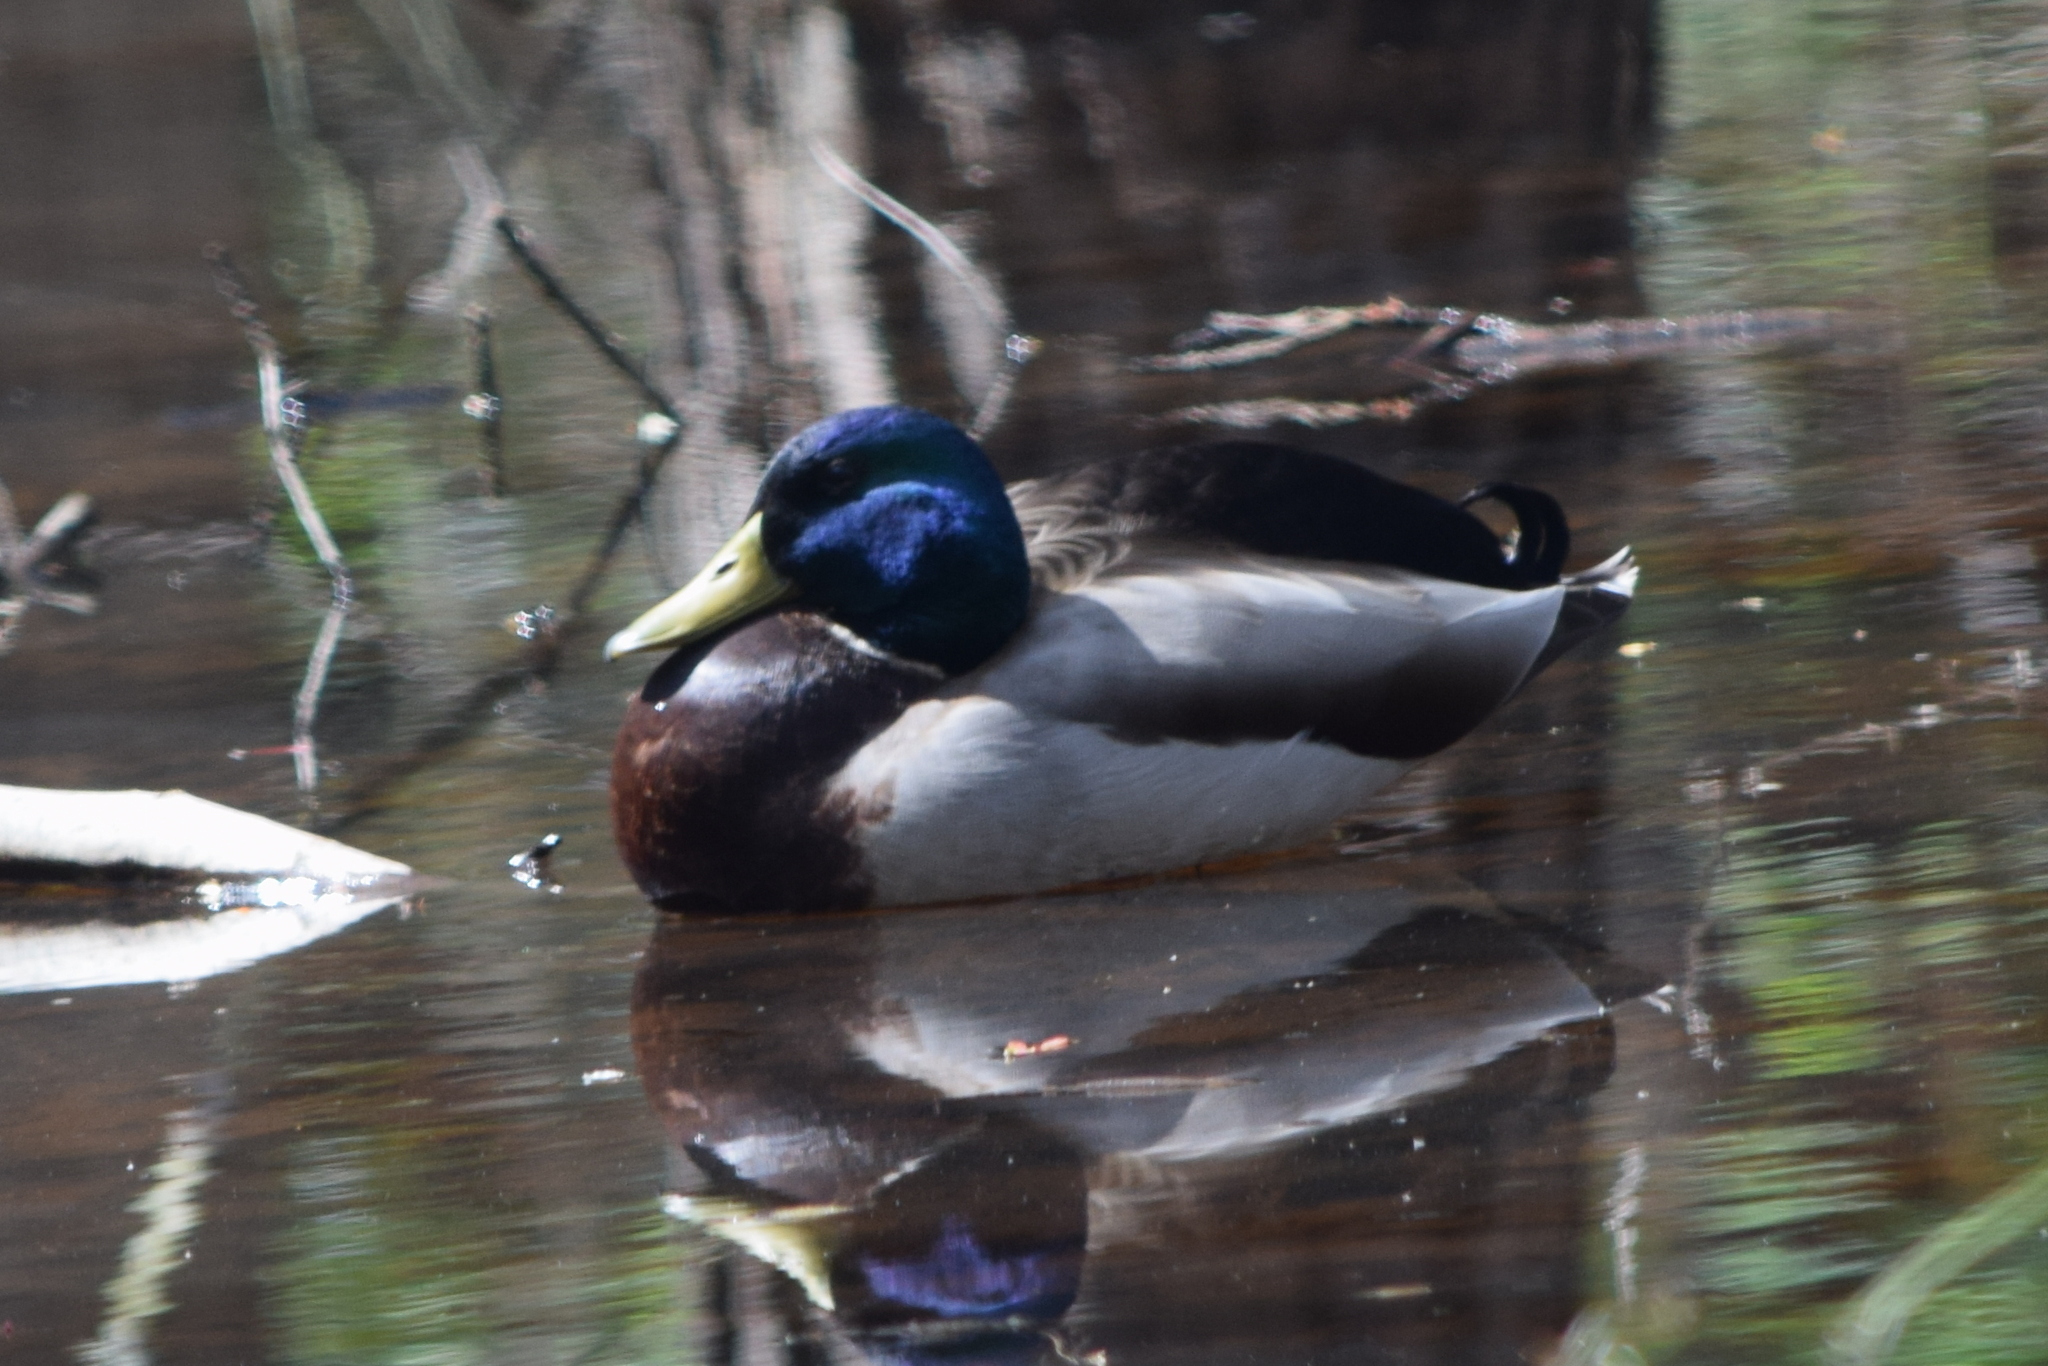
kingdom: Animalia
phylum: Chordata
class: Aves
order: Anseriformes
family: Anatidae
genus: Anas
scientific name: Anas platyrhynchos
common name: Mallard
